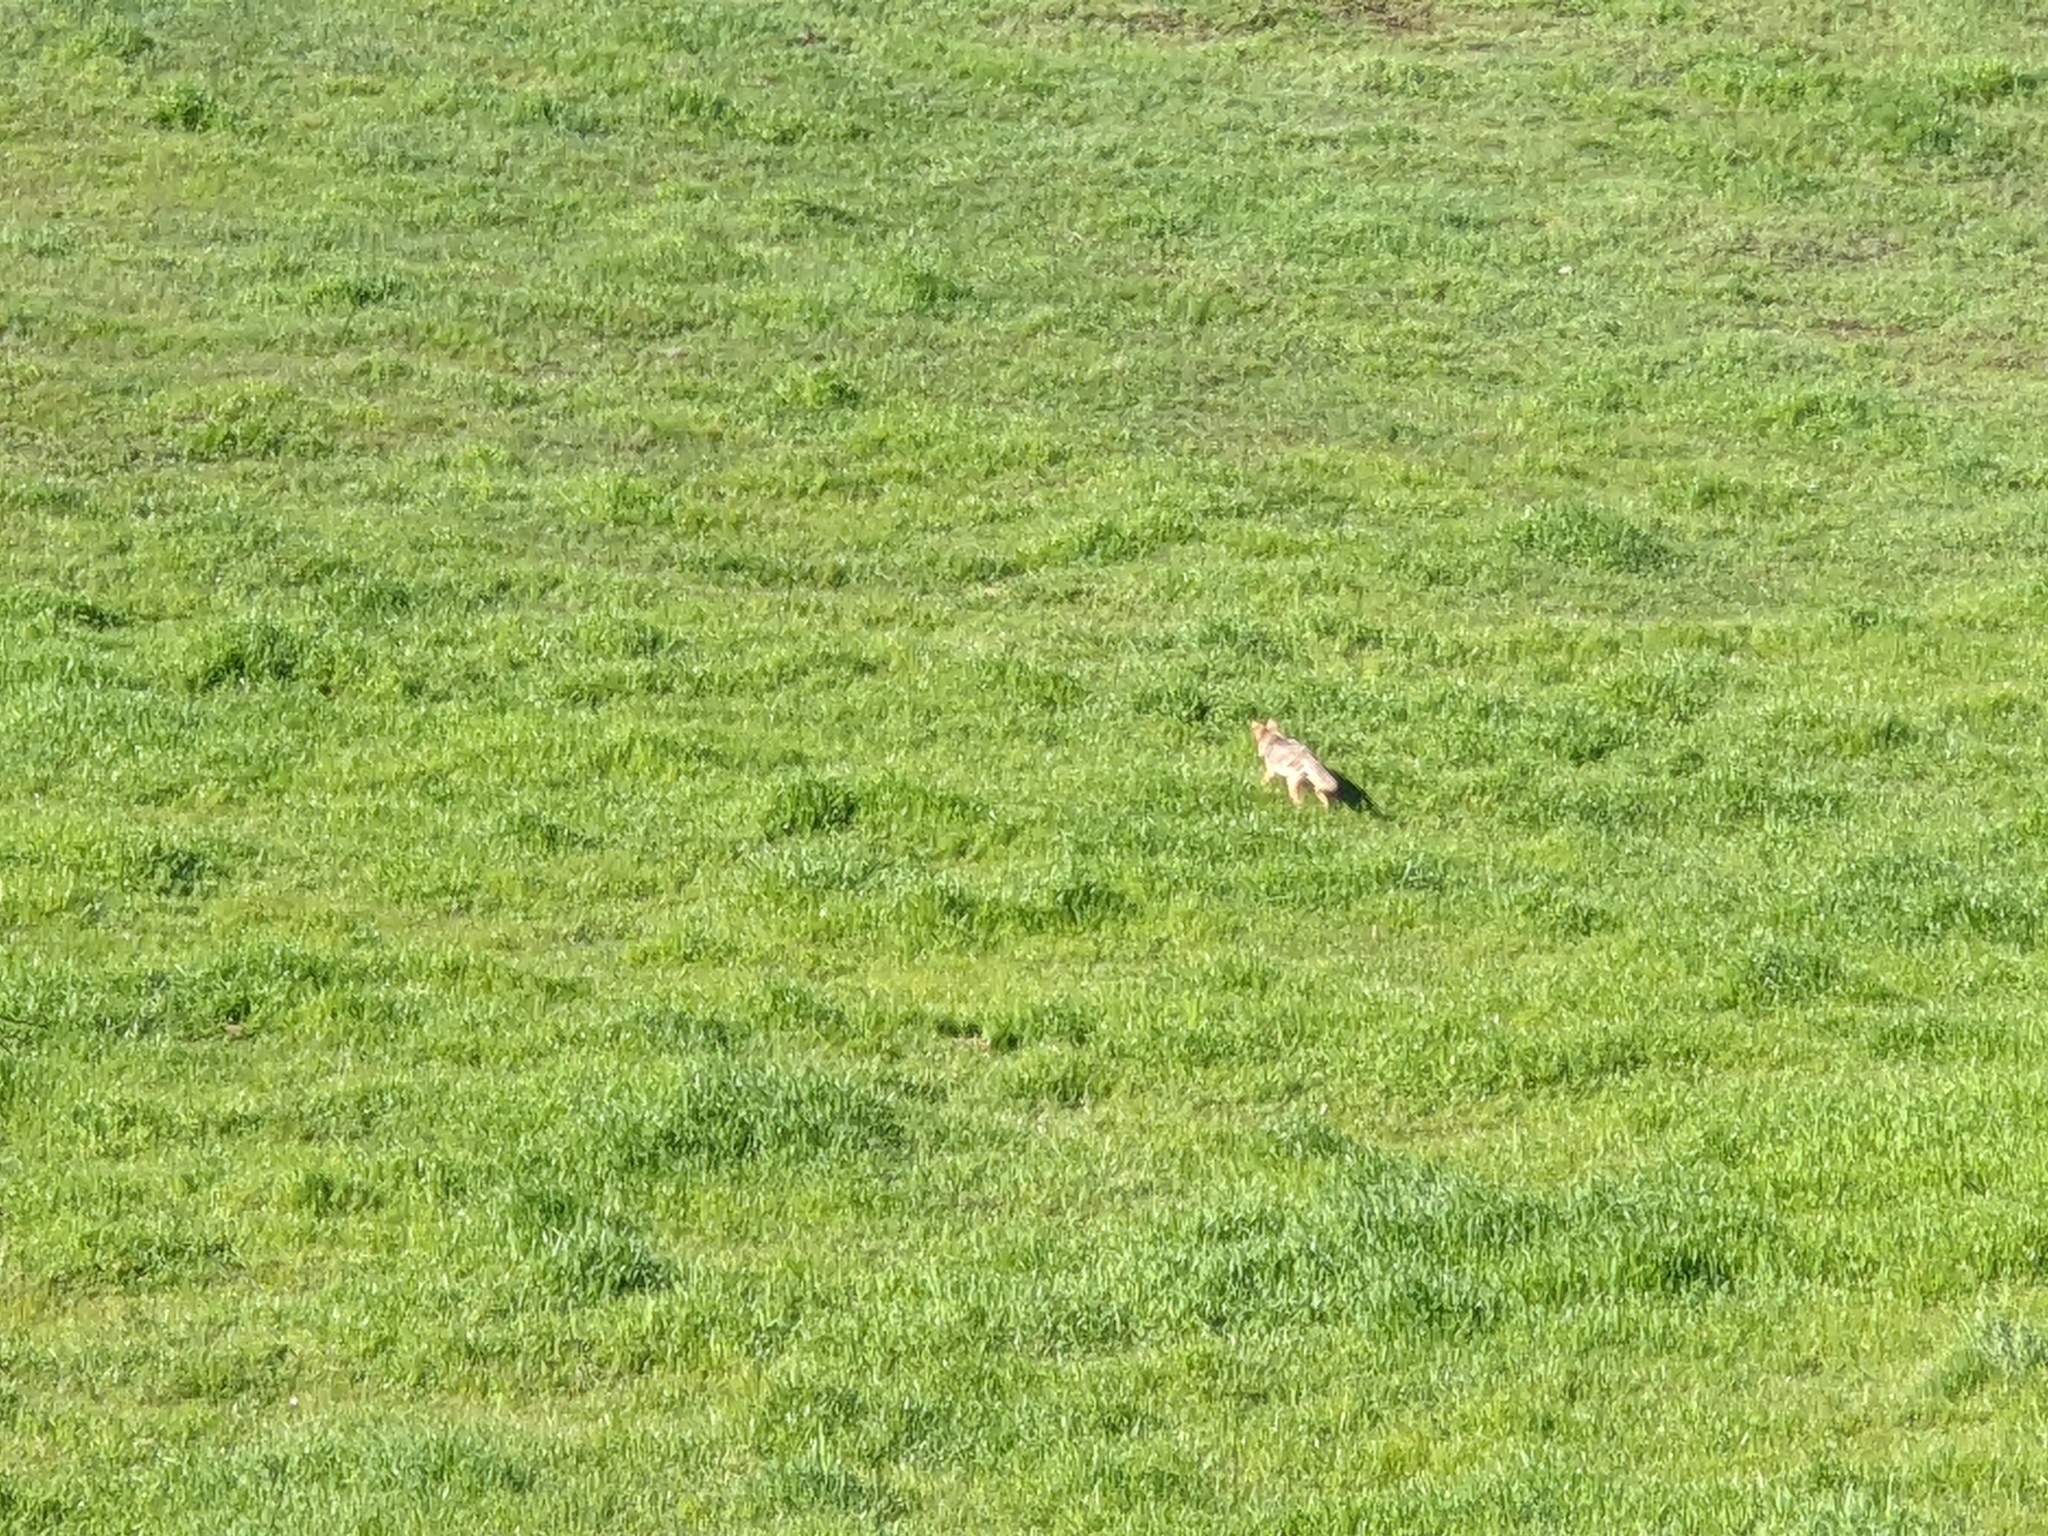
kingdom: Animalia
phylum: Chordata
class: Mammalia
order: Carnivora
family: Canidae
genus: Canis
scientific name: Canis latrans
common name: Coyote
